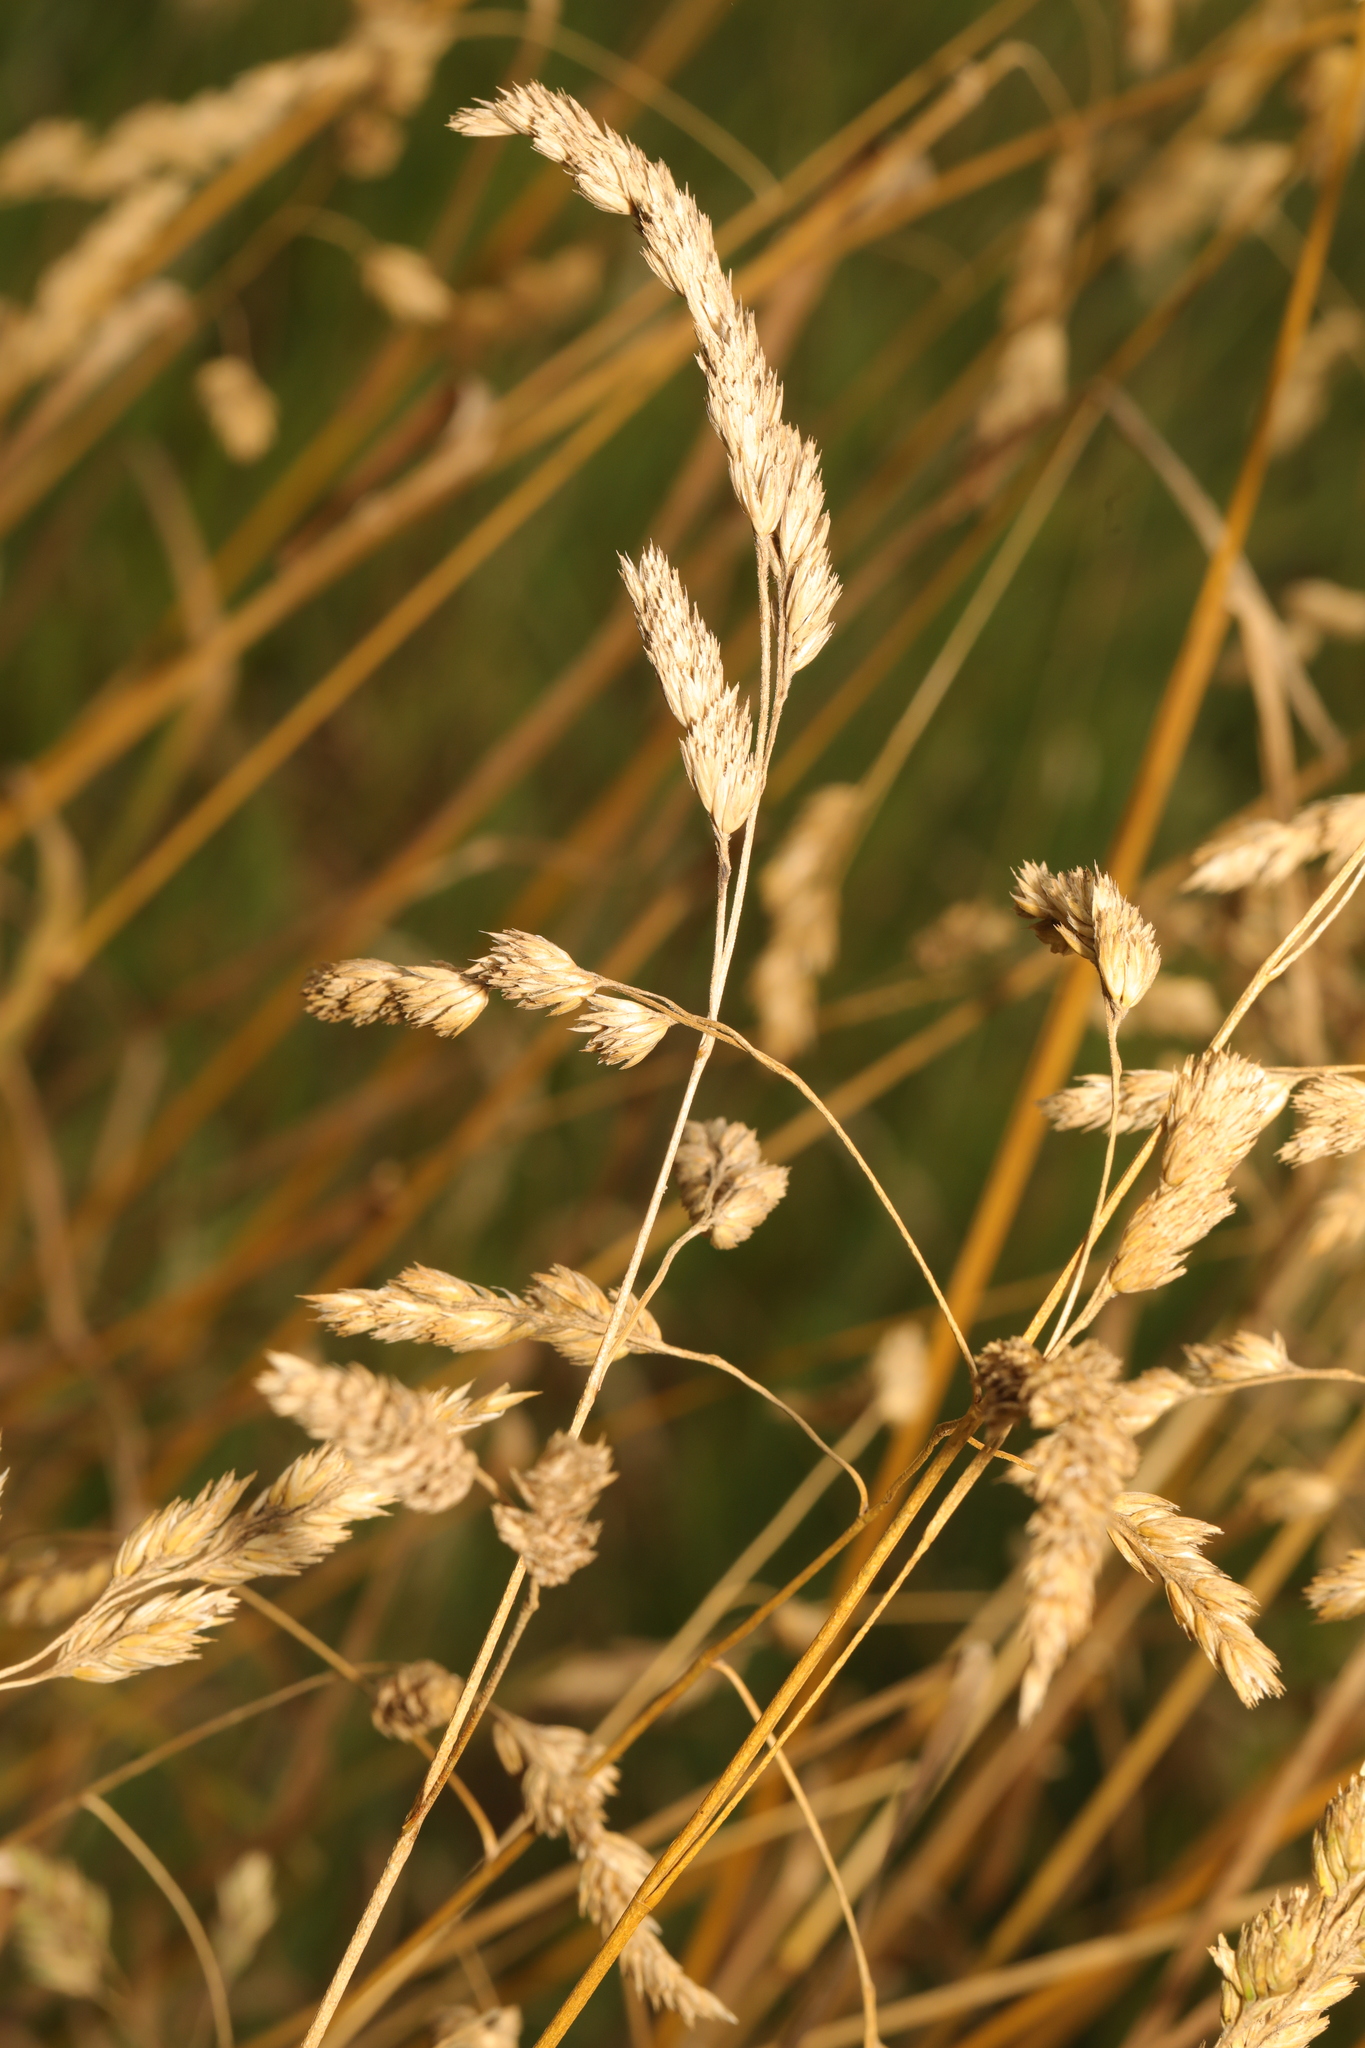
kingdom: Plantae
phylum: Tracheophyta
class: Liliopsida
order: Poales
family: Poaceae
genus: Dactylis
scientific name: Dactylis glomerata
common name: Orchardgrass
